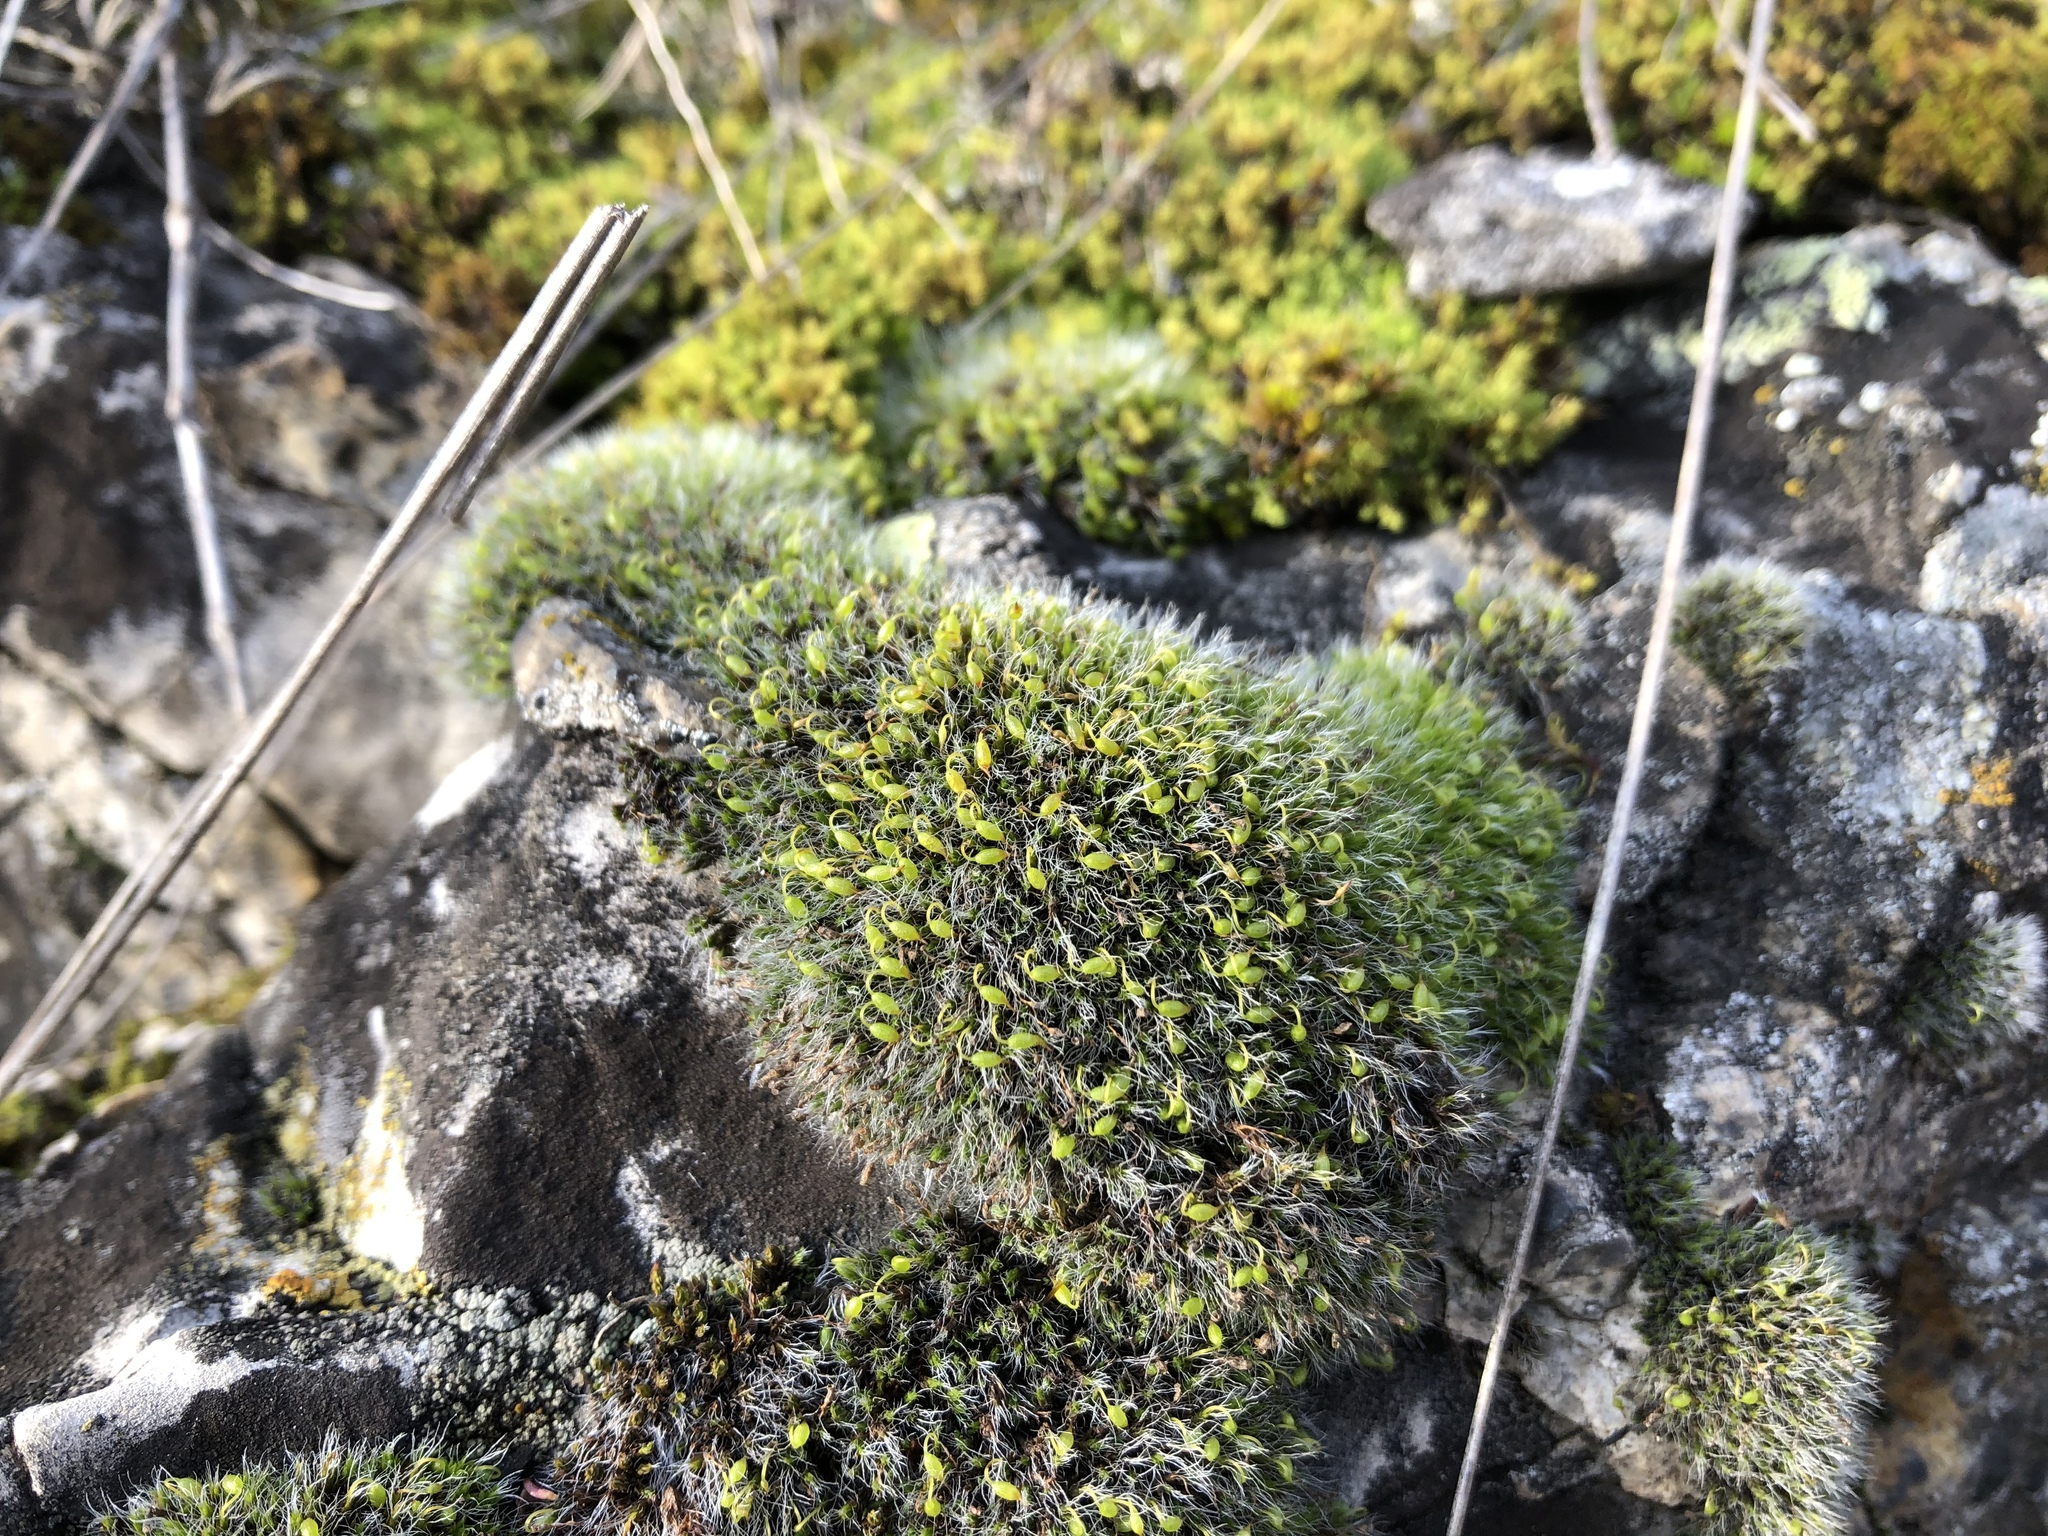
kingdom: Plantae
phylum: Bryophyta
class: Bryopsida
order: Grimmiales
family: Grimmiaceae
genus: Grimmia
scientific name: Grimmia pulvinata
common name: Grey-cushioned grimmia
